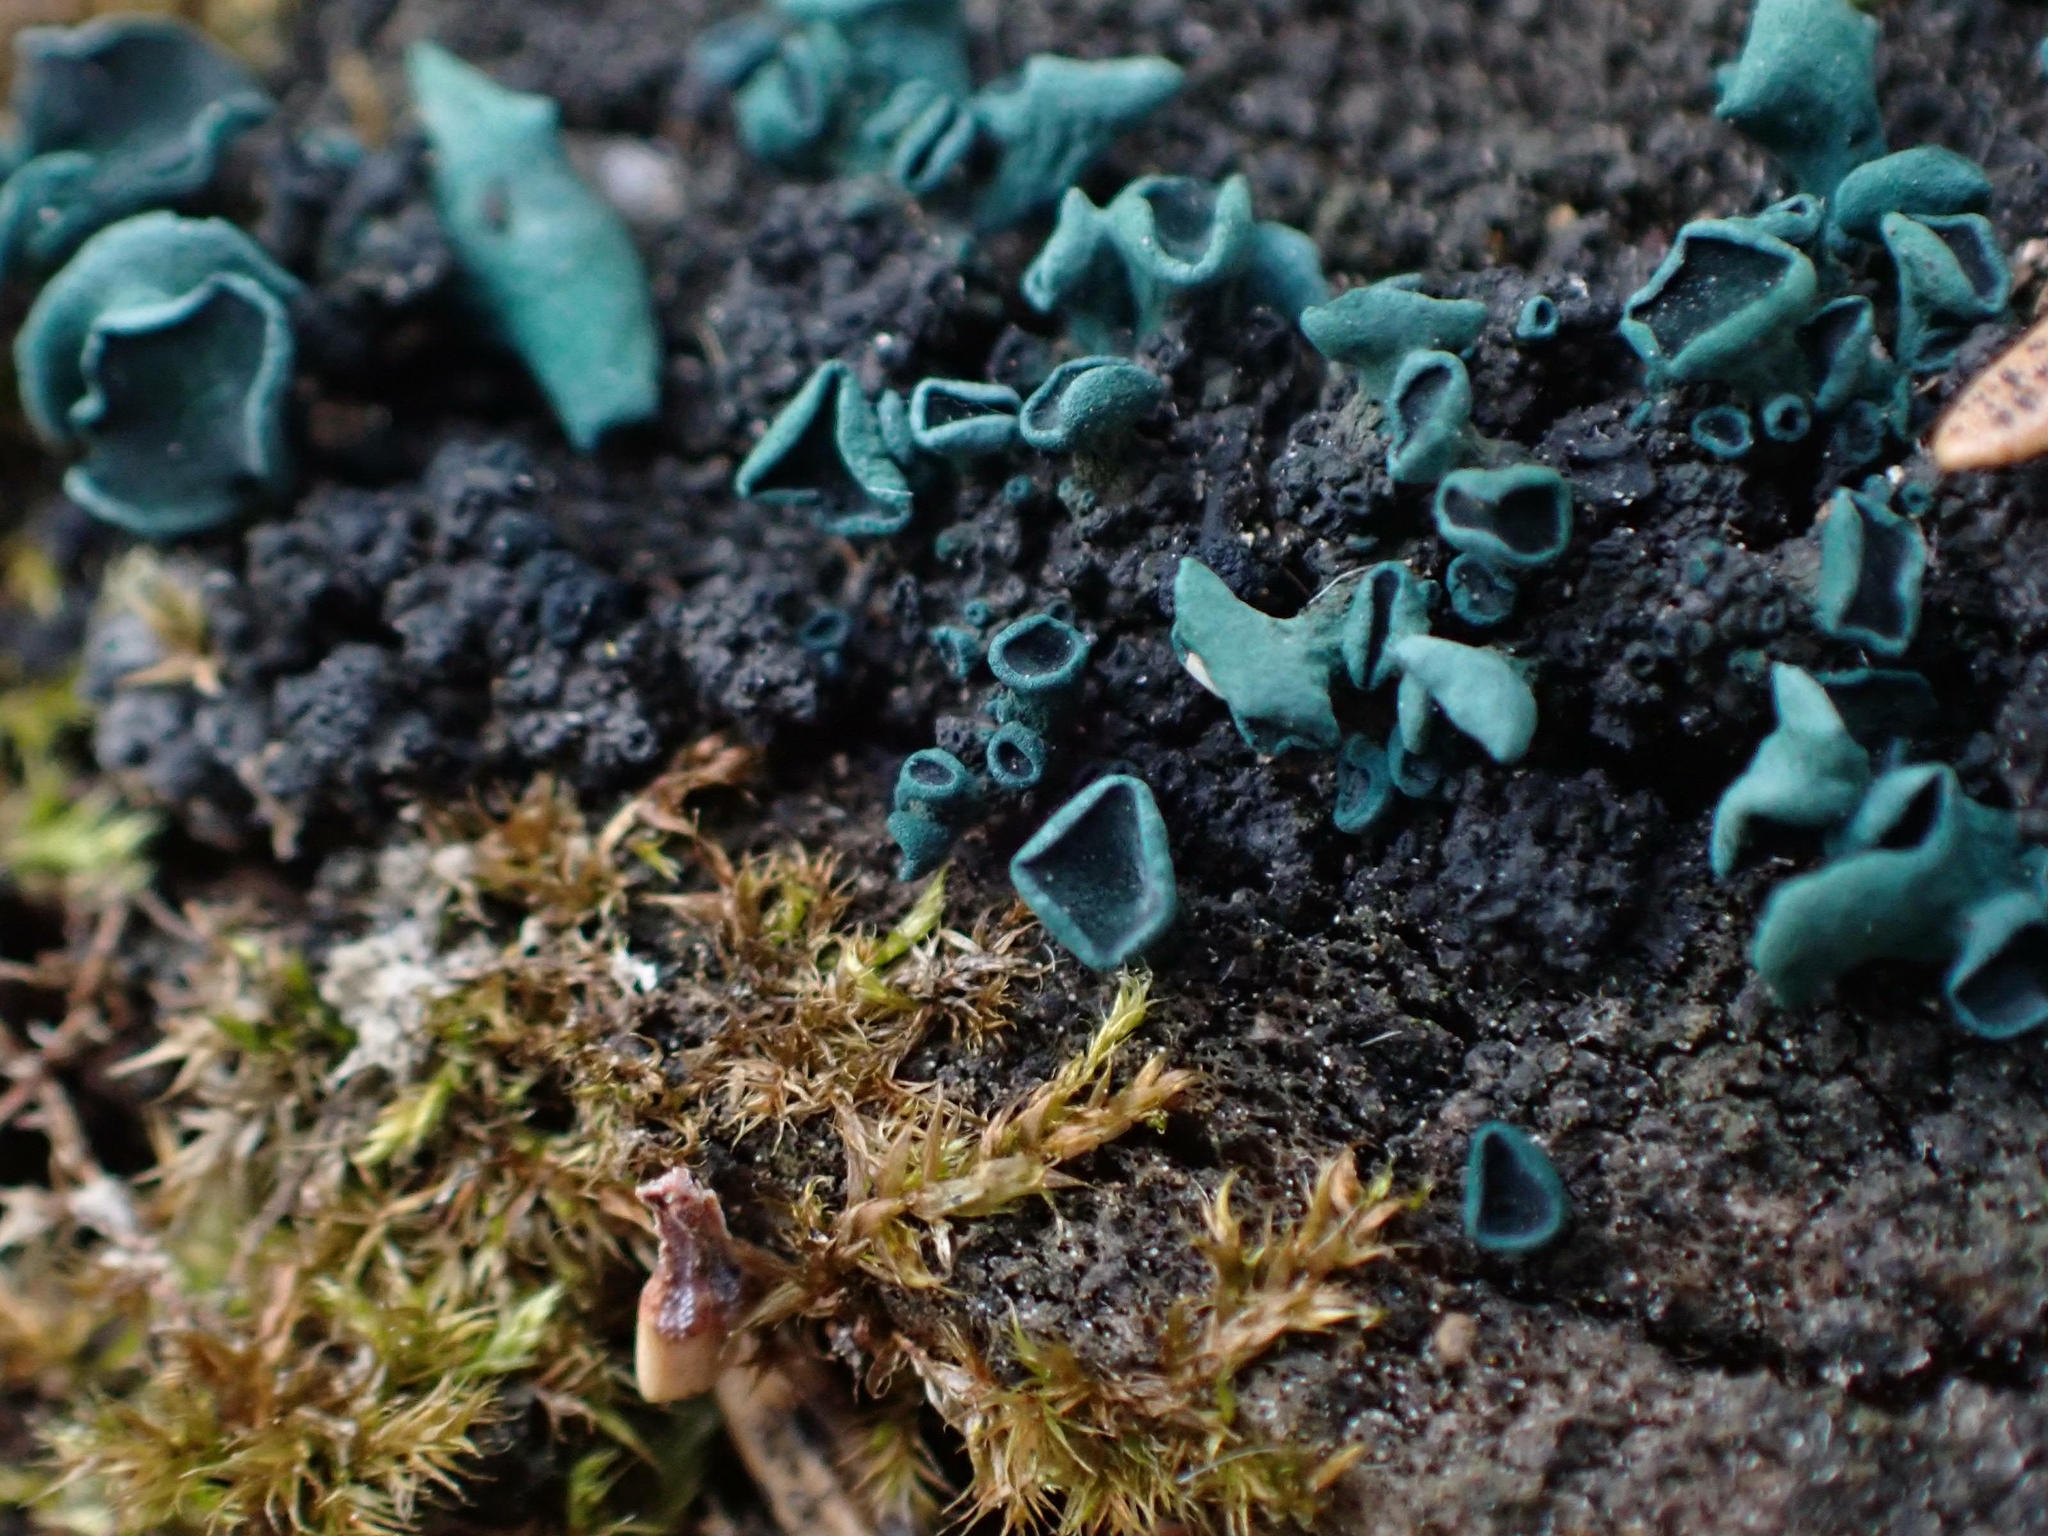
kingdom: Fungi
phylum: Ascomycota
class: Leotiomycetes
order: Helotiales
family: Chlorociboriaceae
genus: Chlorociboria
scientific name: Chlorociboria aeruginascens
